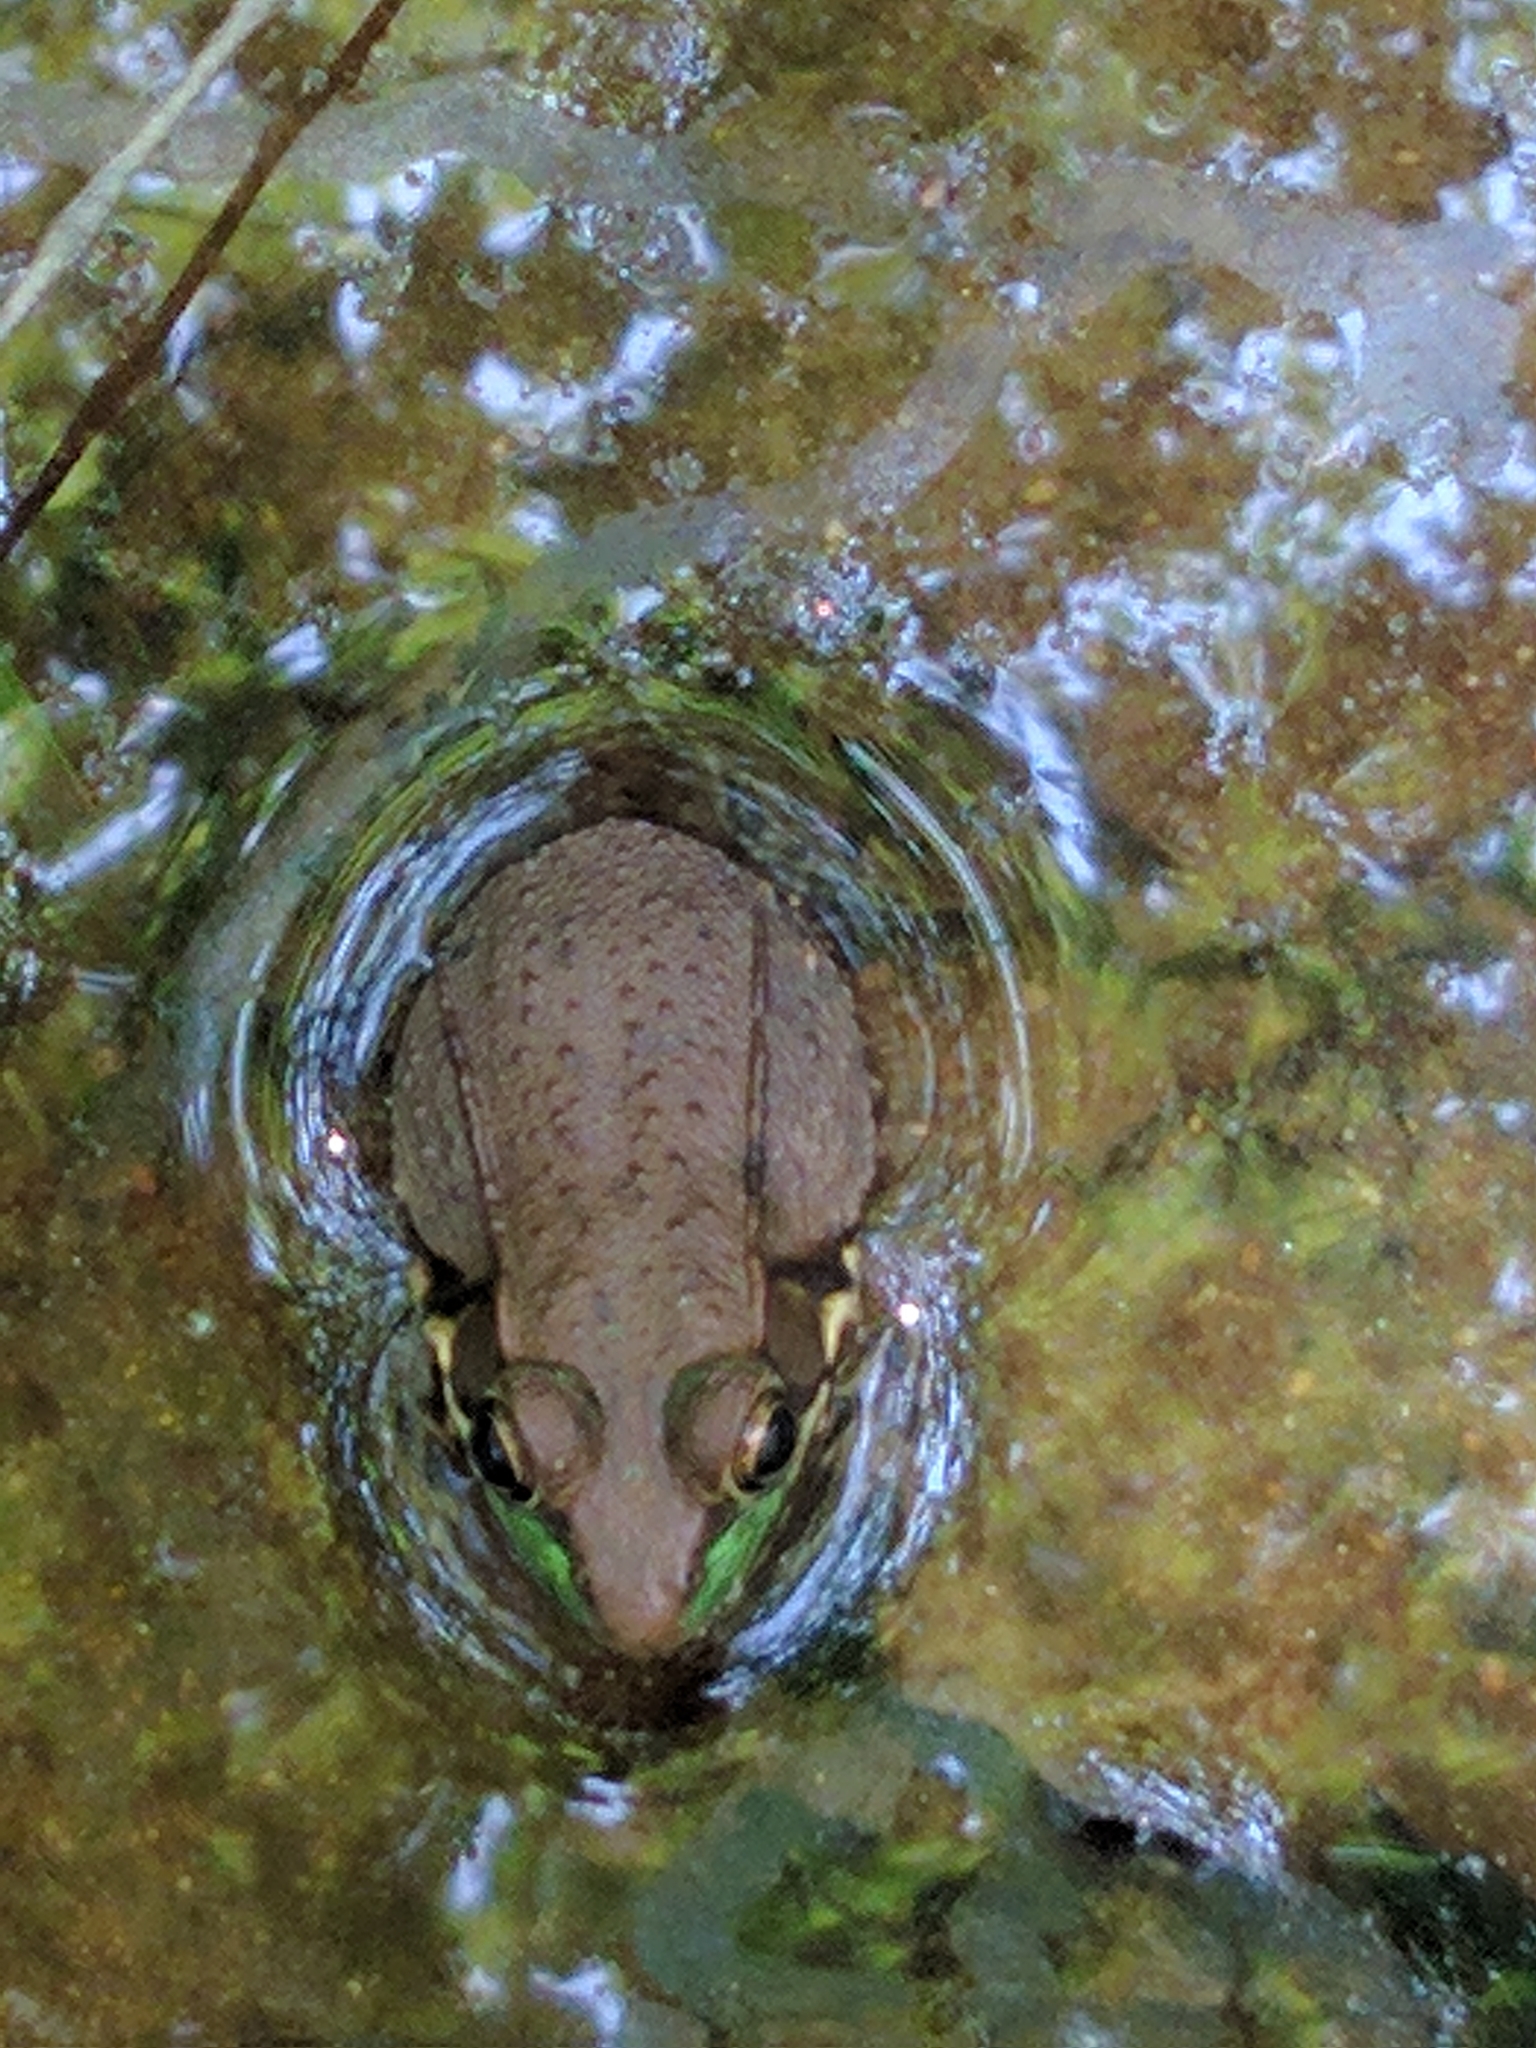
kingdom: Animalia
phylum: Chordata
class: Amphibia
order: Anura
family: Ranidae
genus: Lithobates
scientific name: Lithobates clamitans
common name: Green frog
